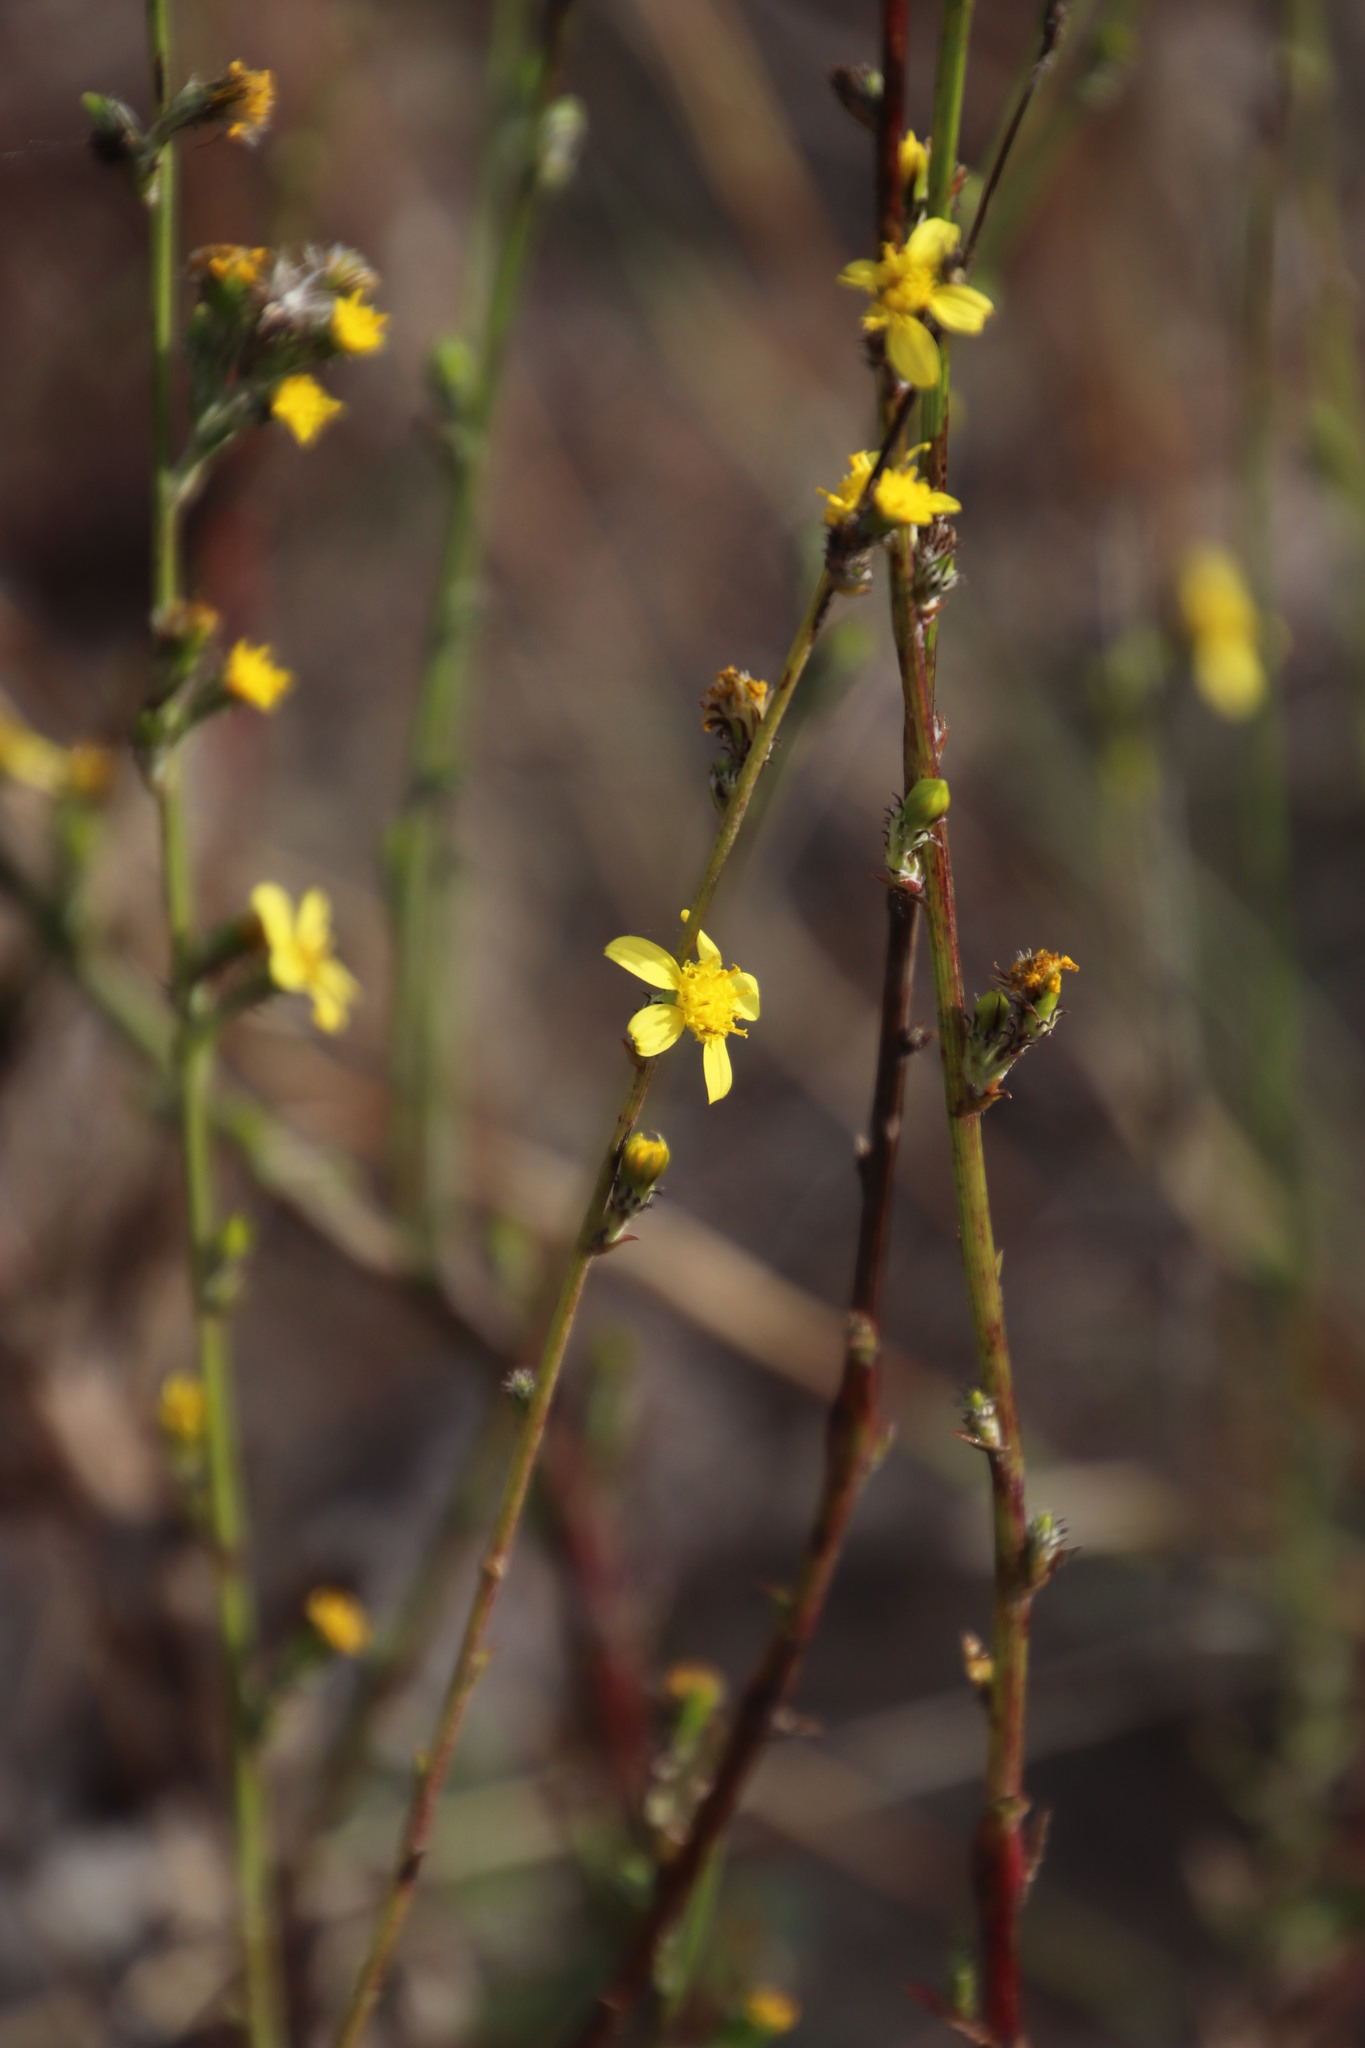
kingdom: Plantae
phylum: Tracheophyta
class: Magnoliopsida
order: Asterales
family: Asteraceae
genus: Senecio
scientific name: Senecio pubigerus
